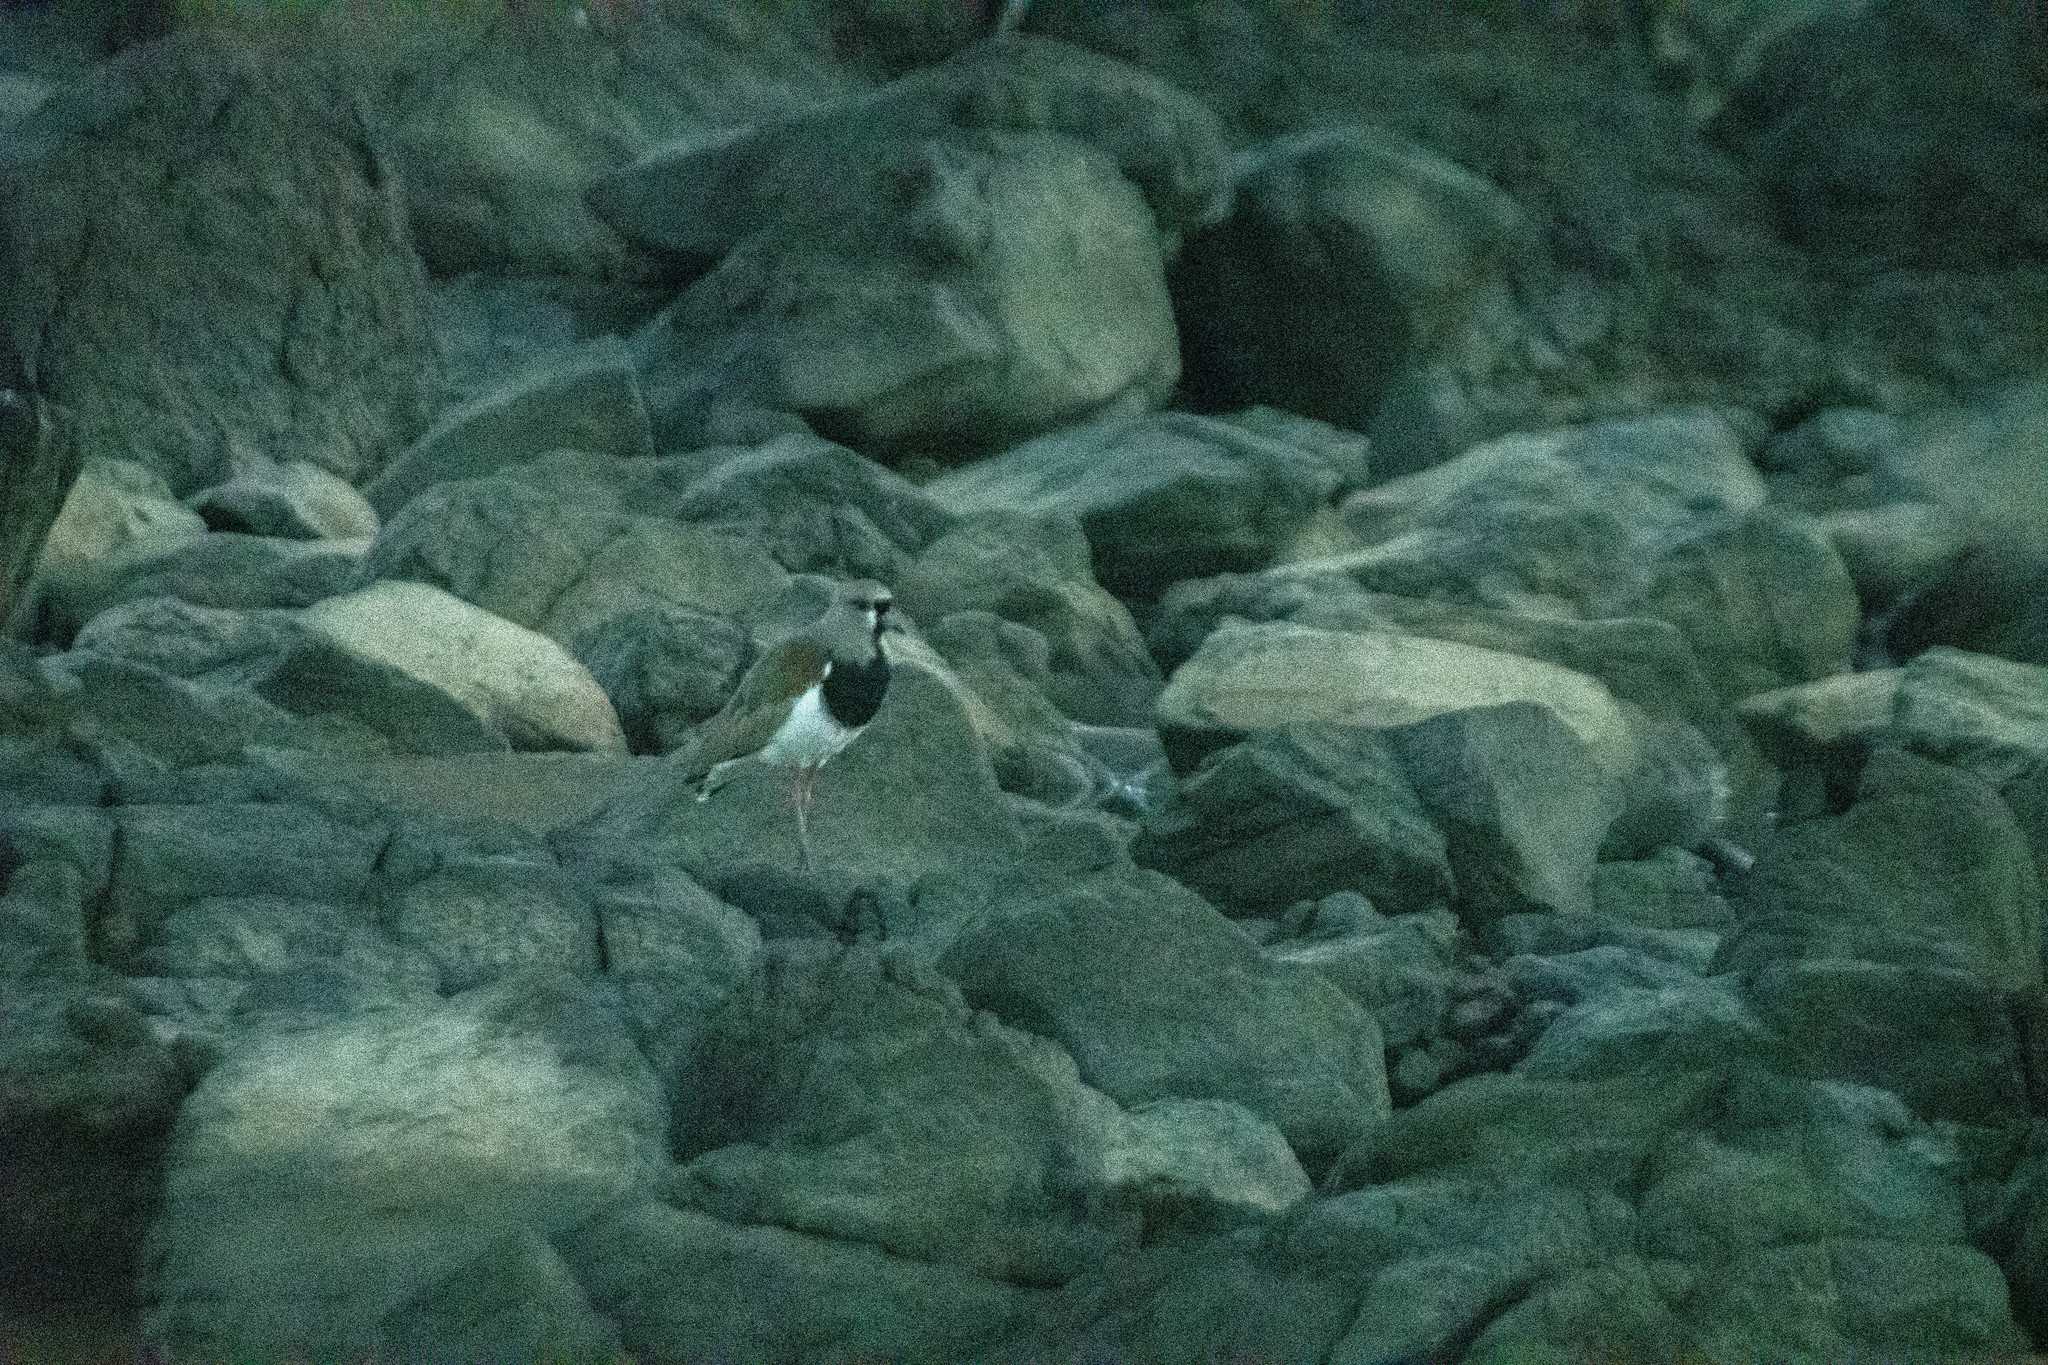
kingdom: Animalia
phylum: Chordata
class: Aves
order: Charadriiformes
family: Charadriidae
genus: Vanellus
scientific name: Vanellus chilensis
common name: Southern lapwing
